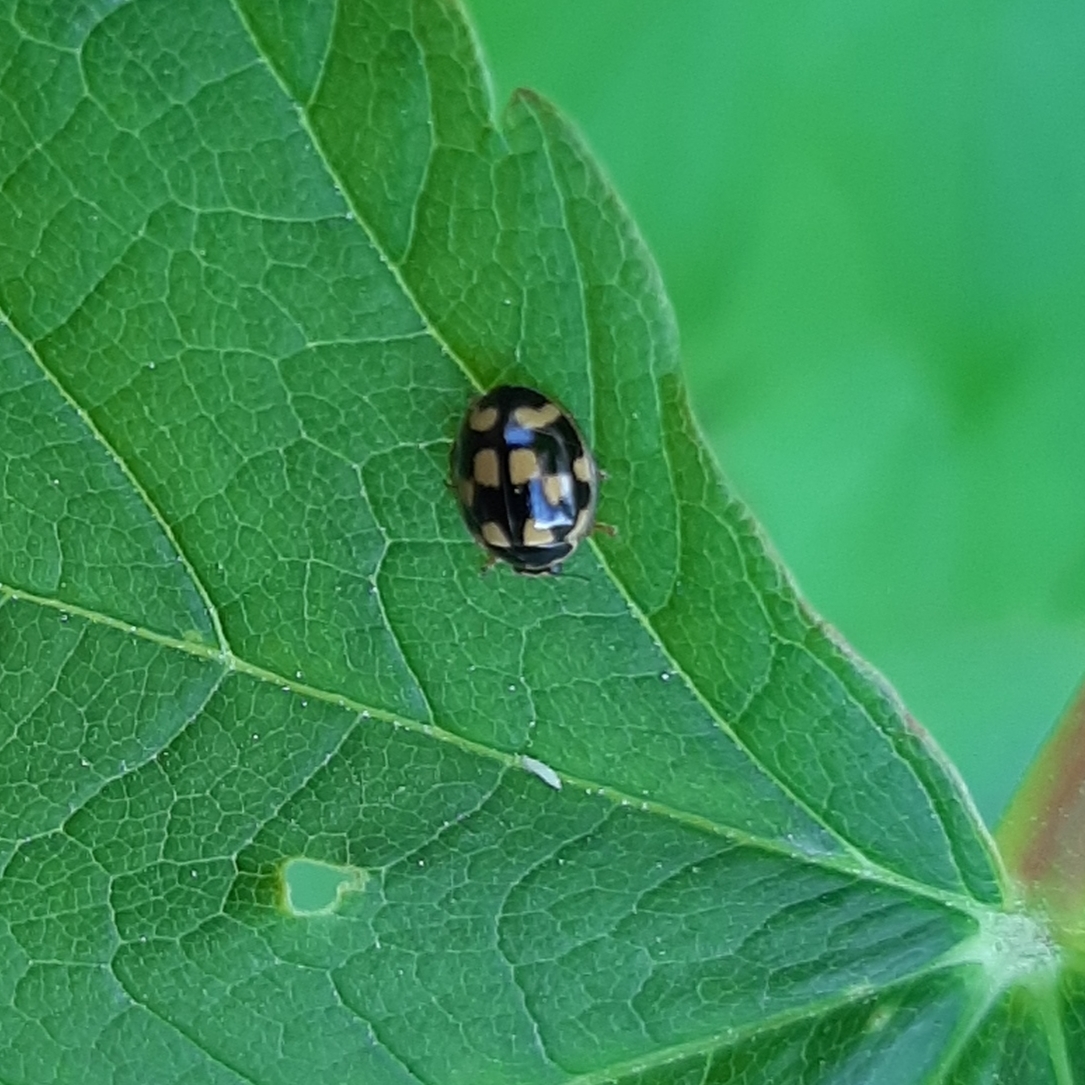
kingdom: Animalia
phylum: Arthropoda
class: Insecta
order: Coleoptera
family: Coccinellidae
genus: Propylaea
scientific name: Propylaea quatuordecimpunctata
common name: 14-spotted ladybird beetle
